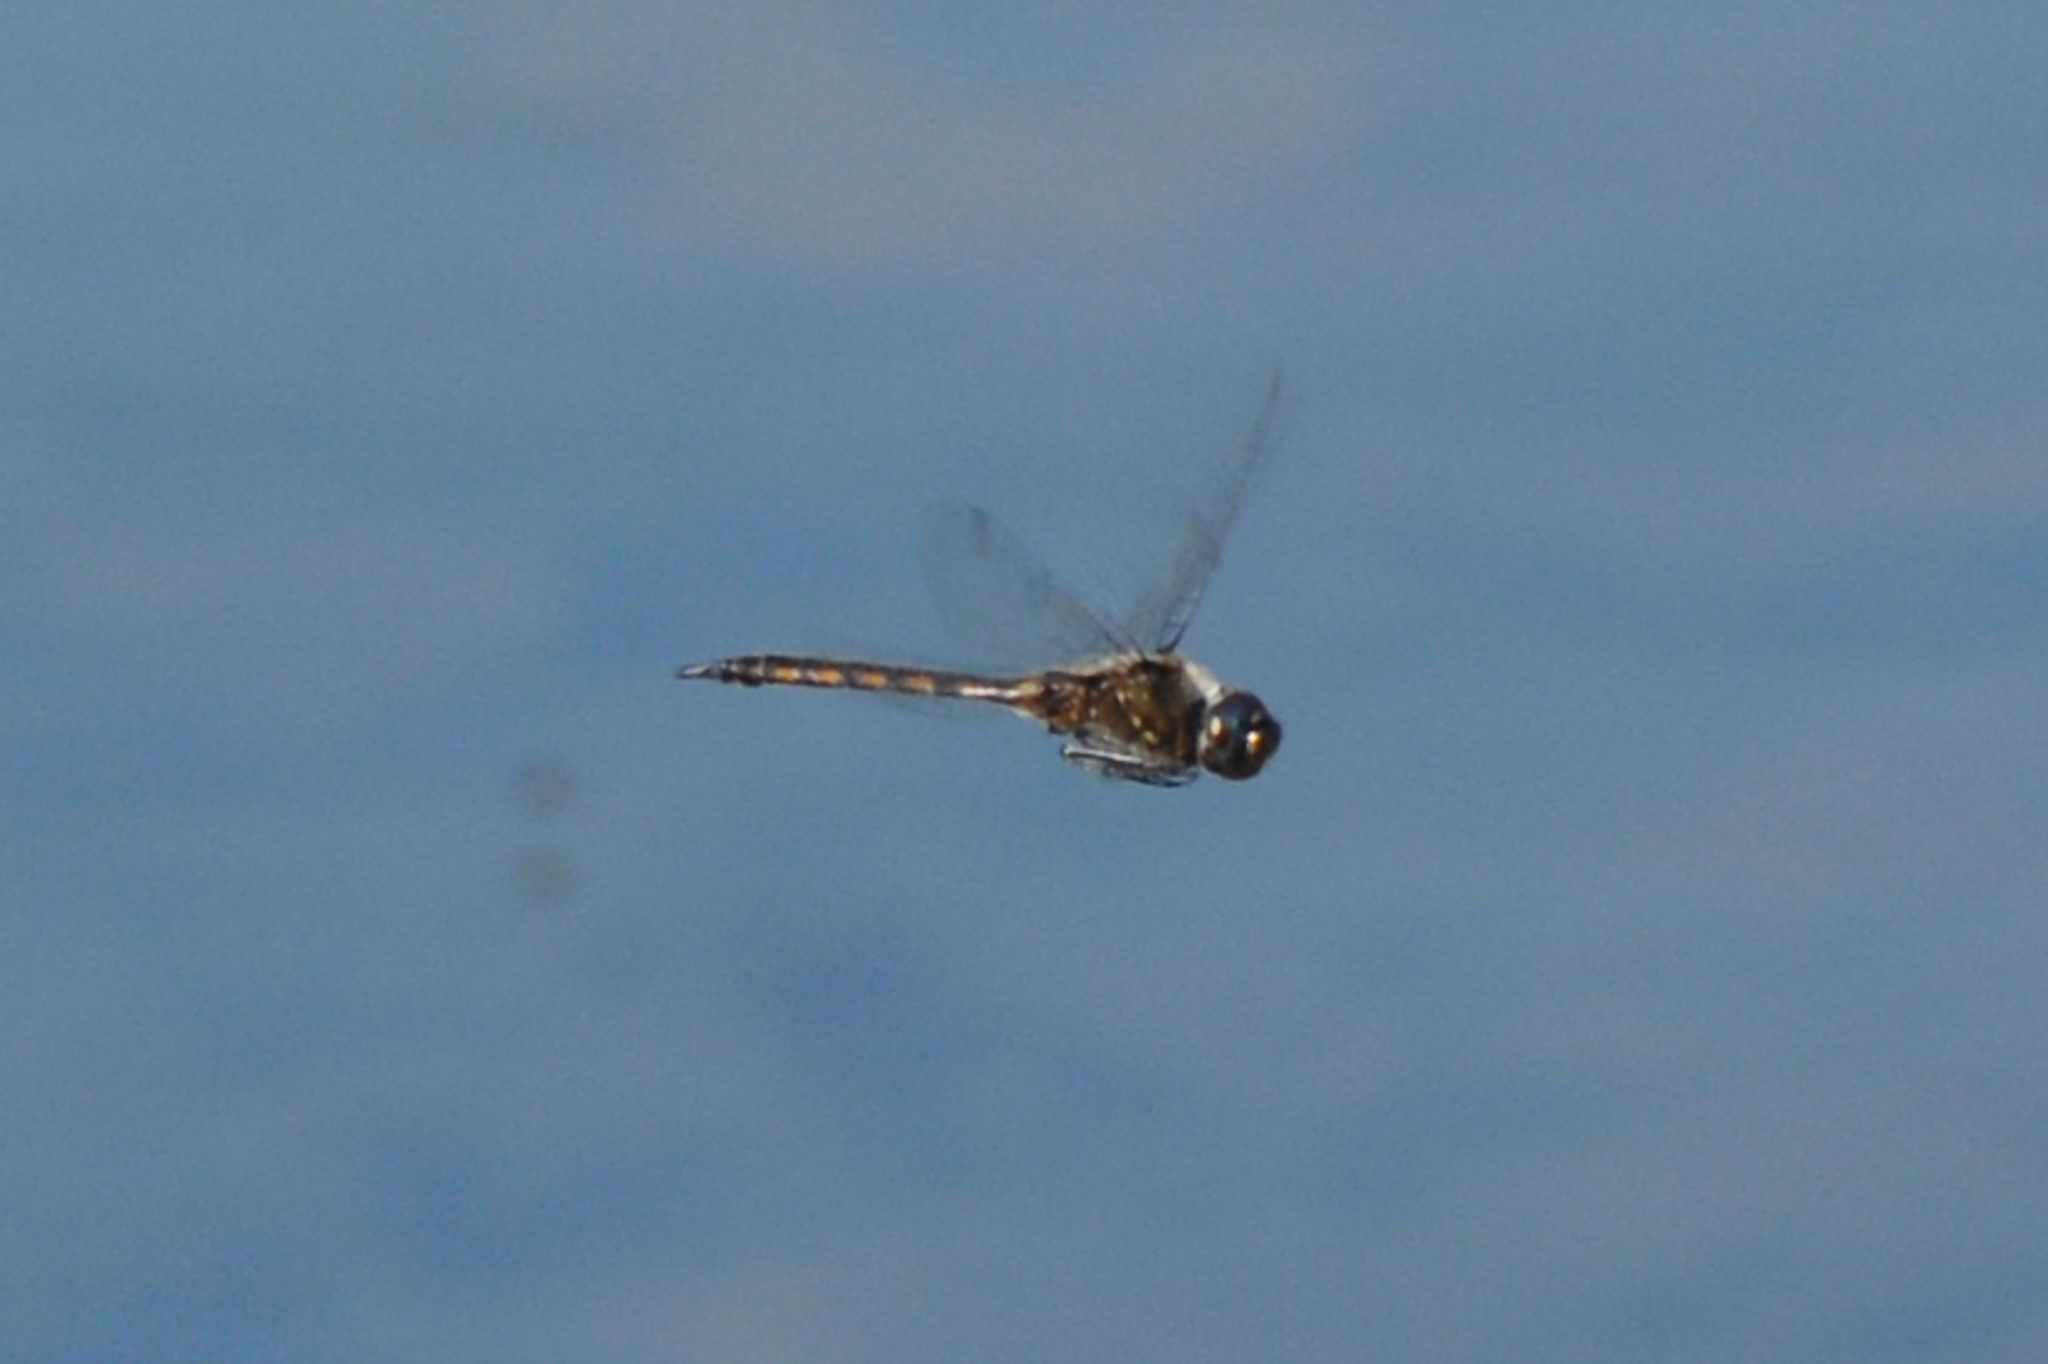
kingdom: Animalia
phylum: Arthropoda
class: Insecta
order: Odonata
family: Corduliidae
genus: Epitheca
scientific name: Epitheca cynosura
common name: Common baskettail
